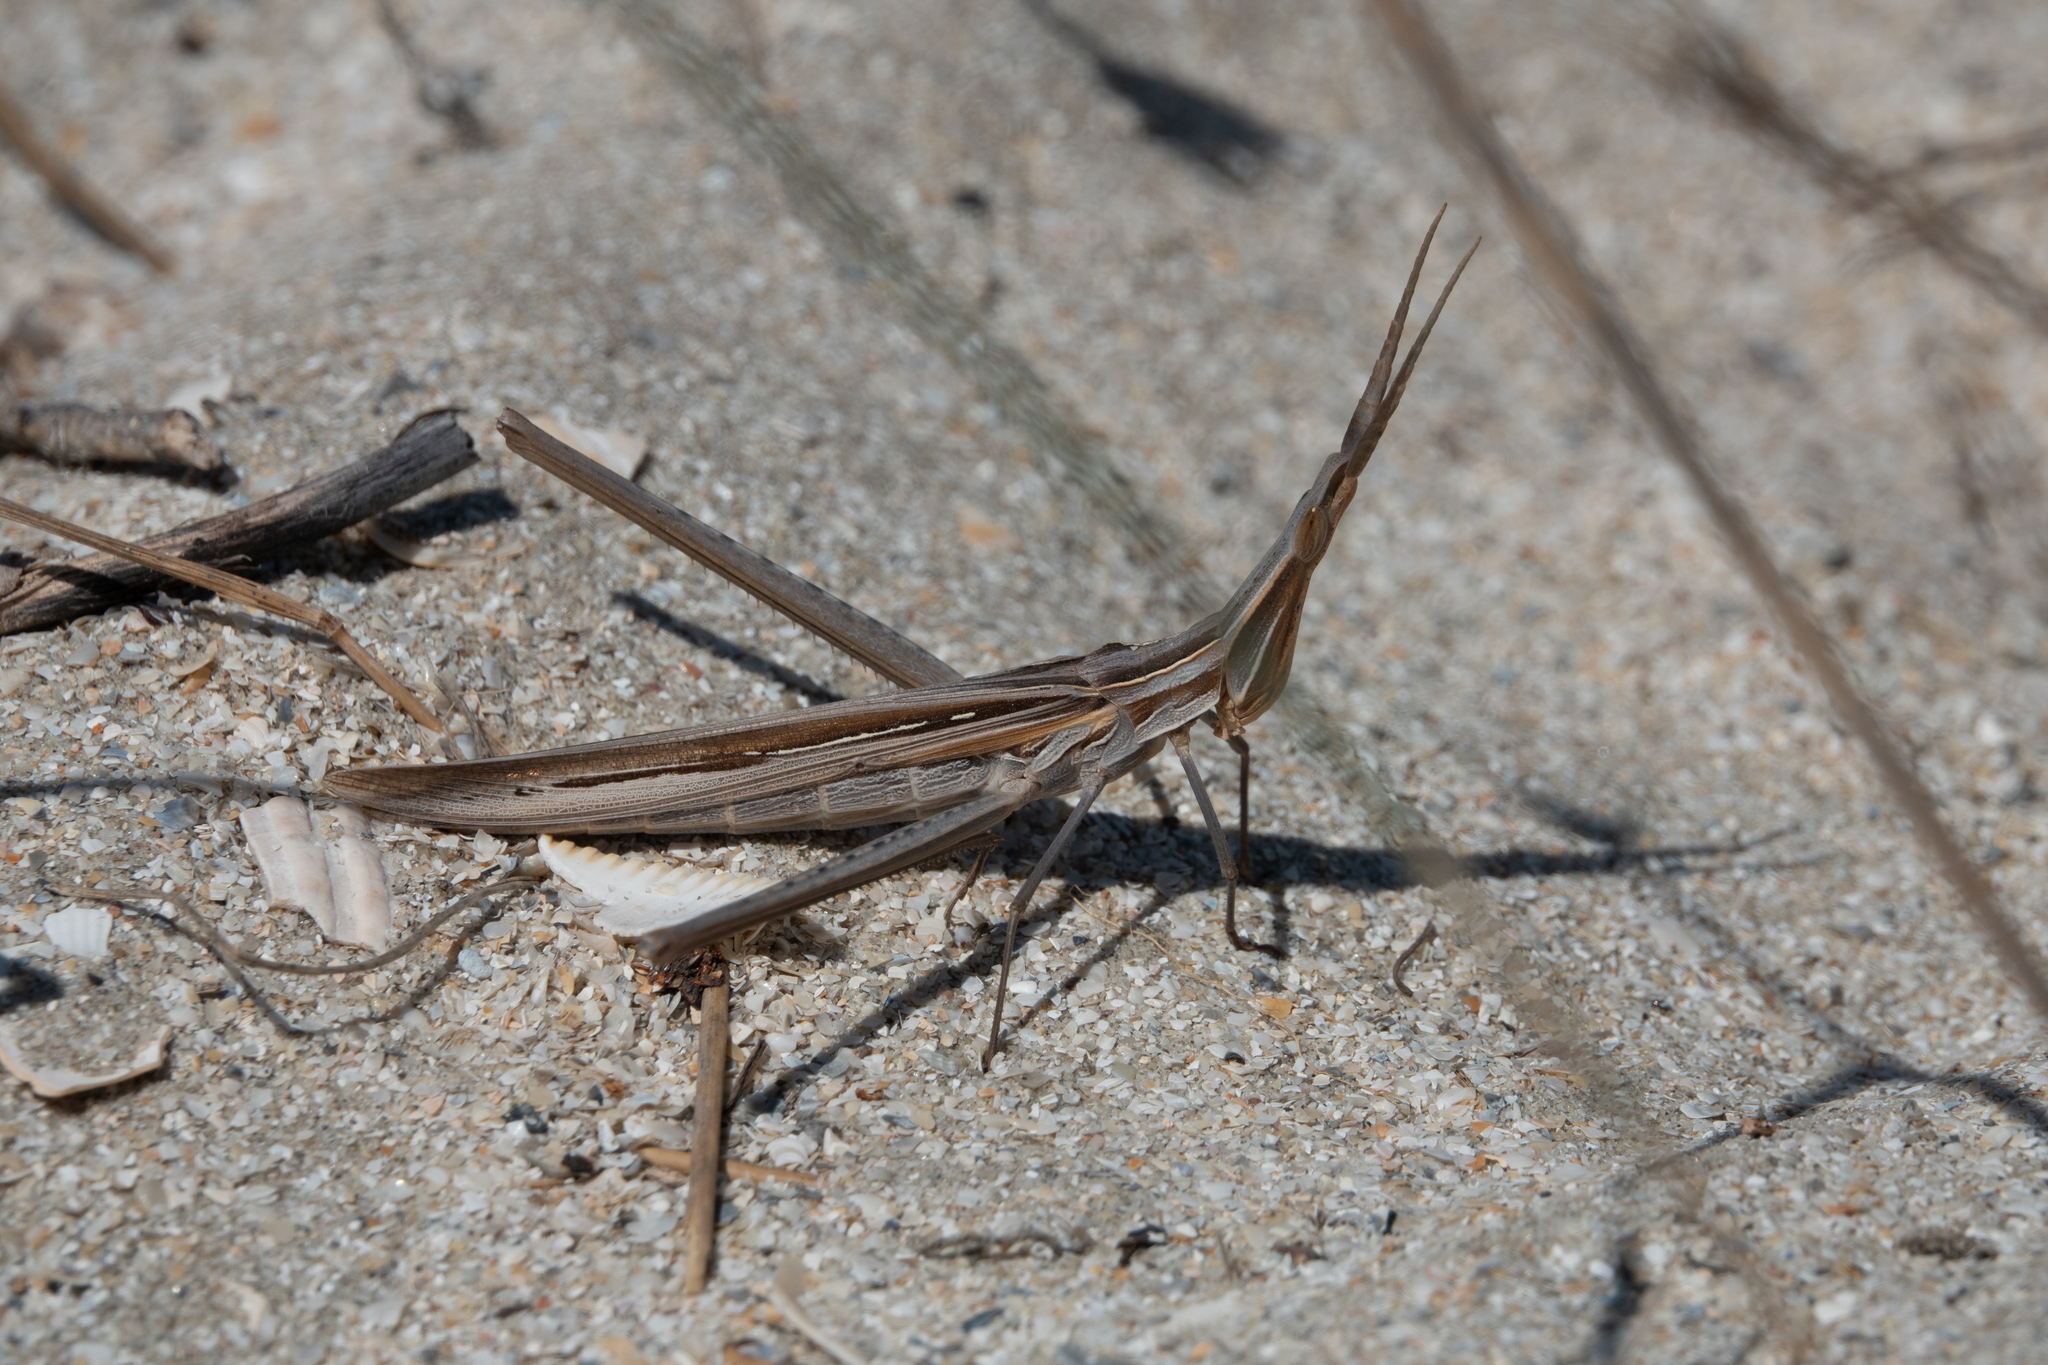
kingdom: Animalia
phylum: Arthropoda
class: Insecta
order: Orthoptera
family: Acrididae
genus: Acrida
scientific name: Acrida ungarica
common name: Common cone-headed grasshopper
